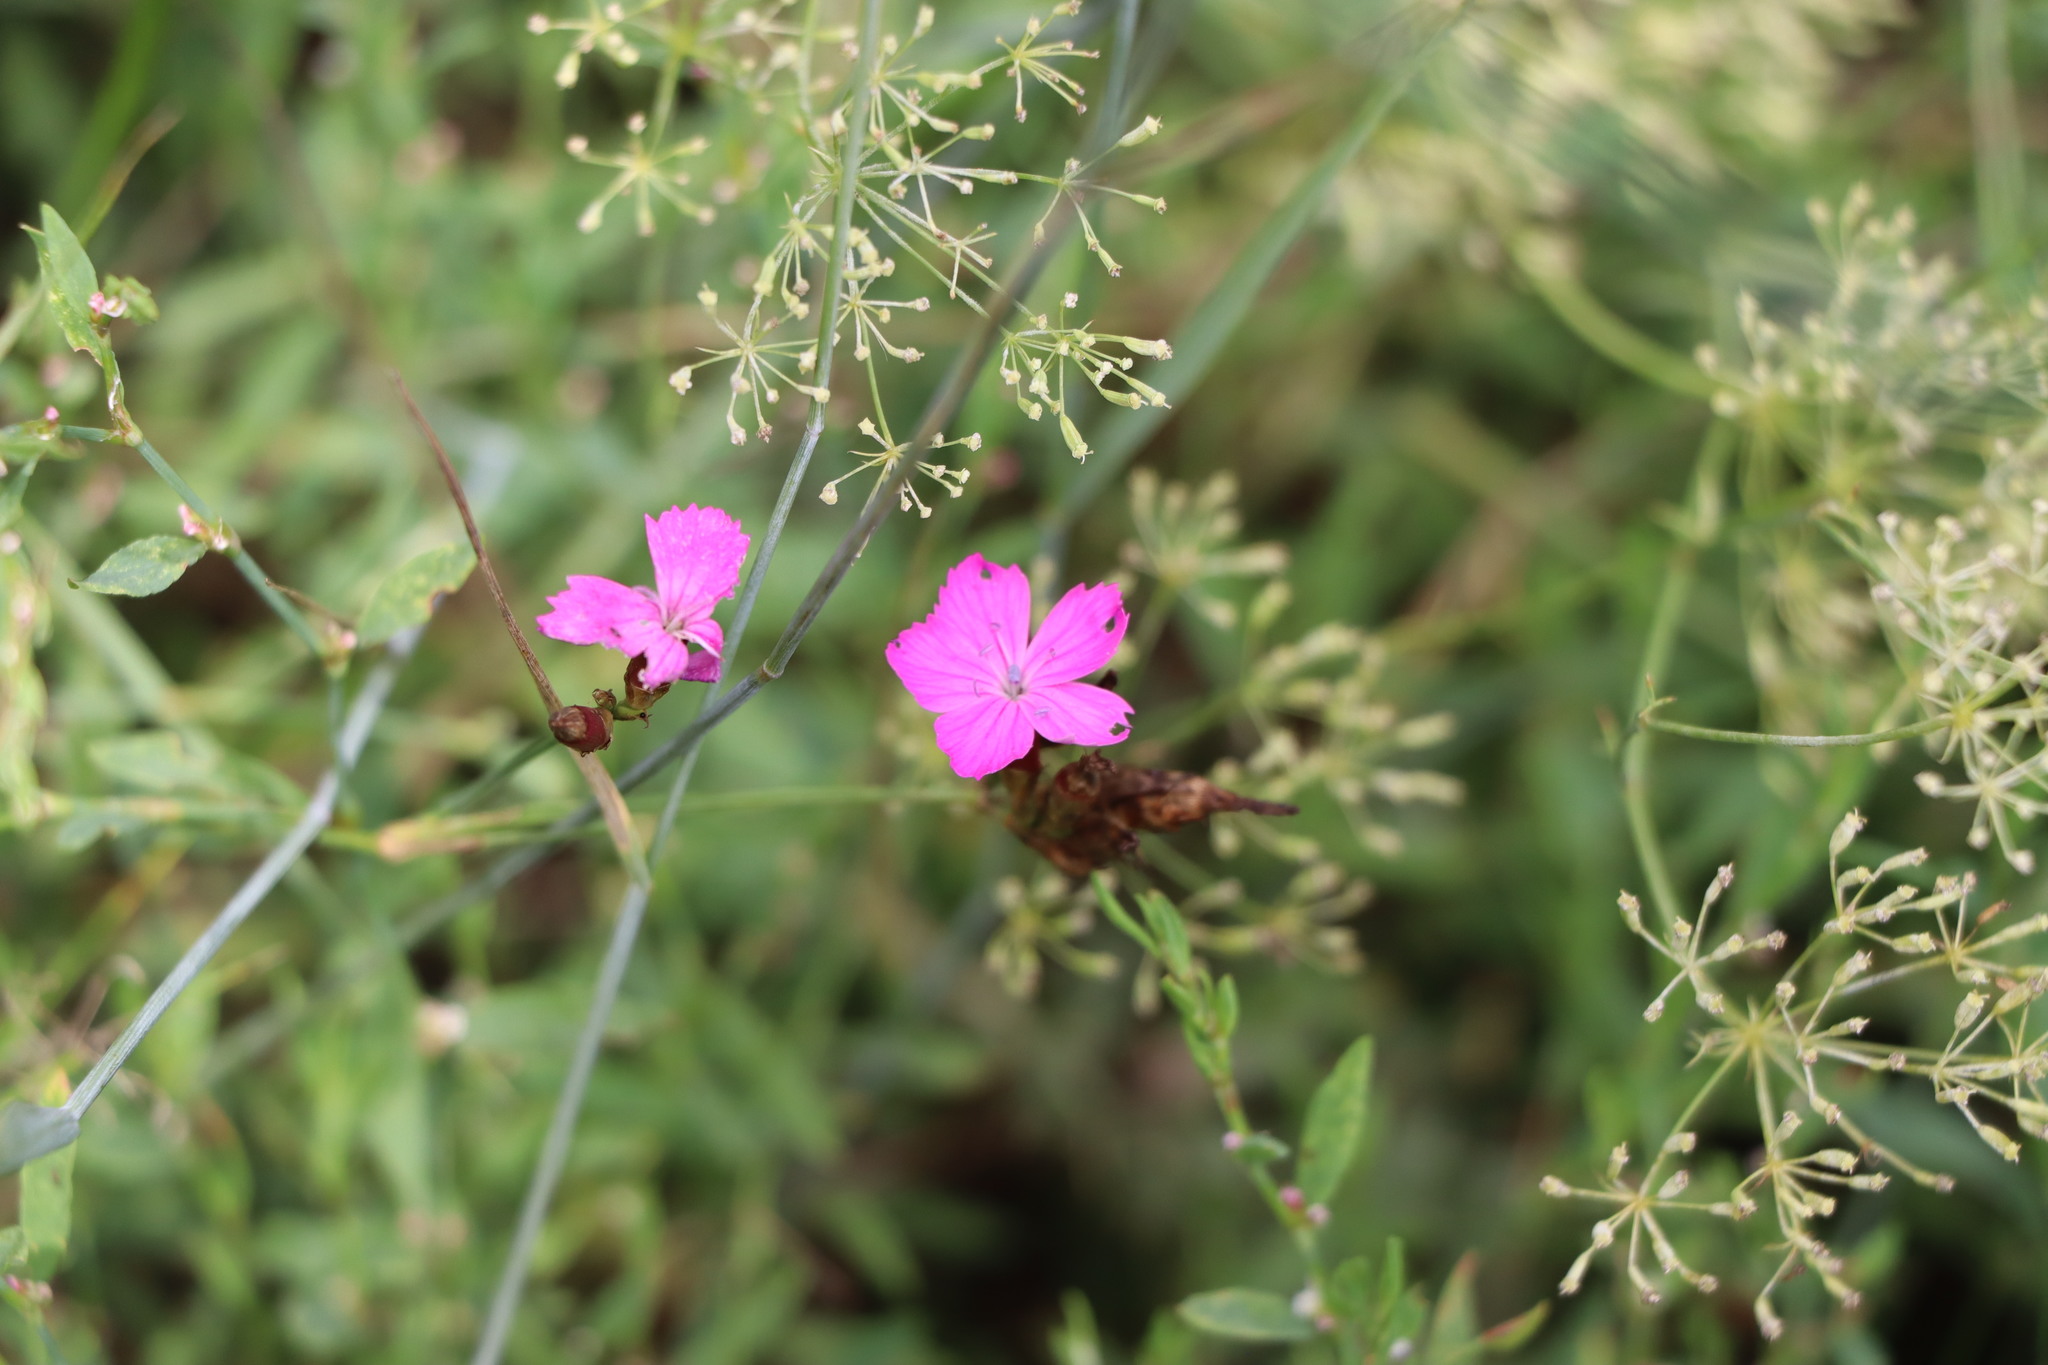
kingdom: Plantae
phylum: Tracheophyta
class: Magnoliopsida
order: Caryophyllales
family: Caryophyllaceae
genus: Dianthus
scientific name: Dianthus carthusianorum
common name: Carthusian pink
